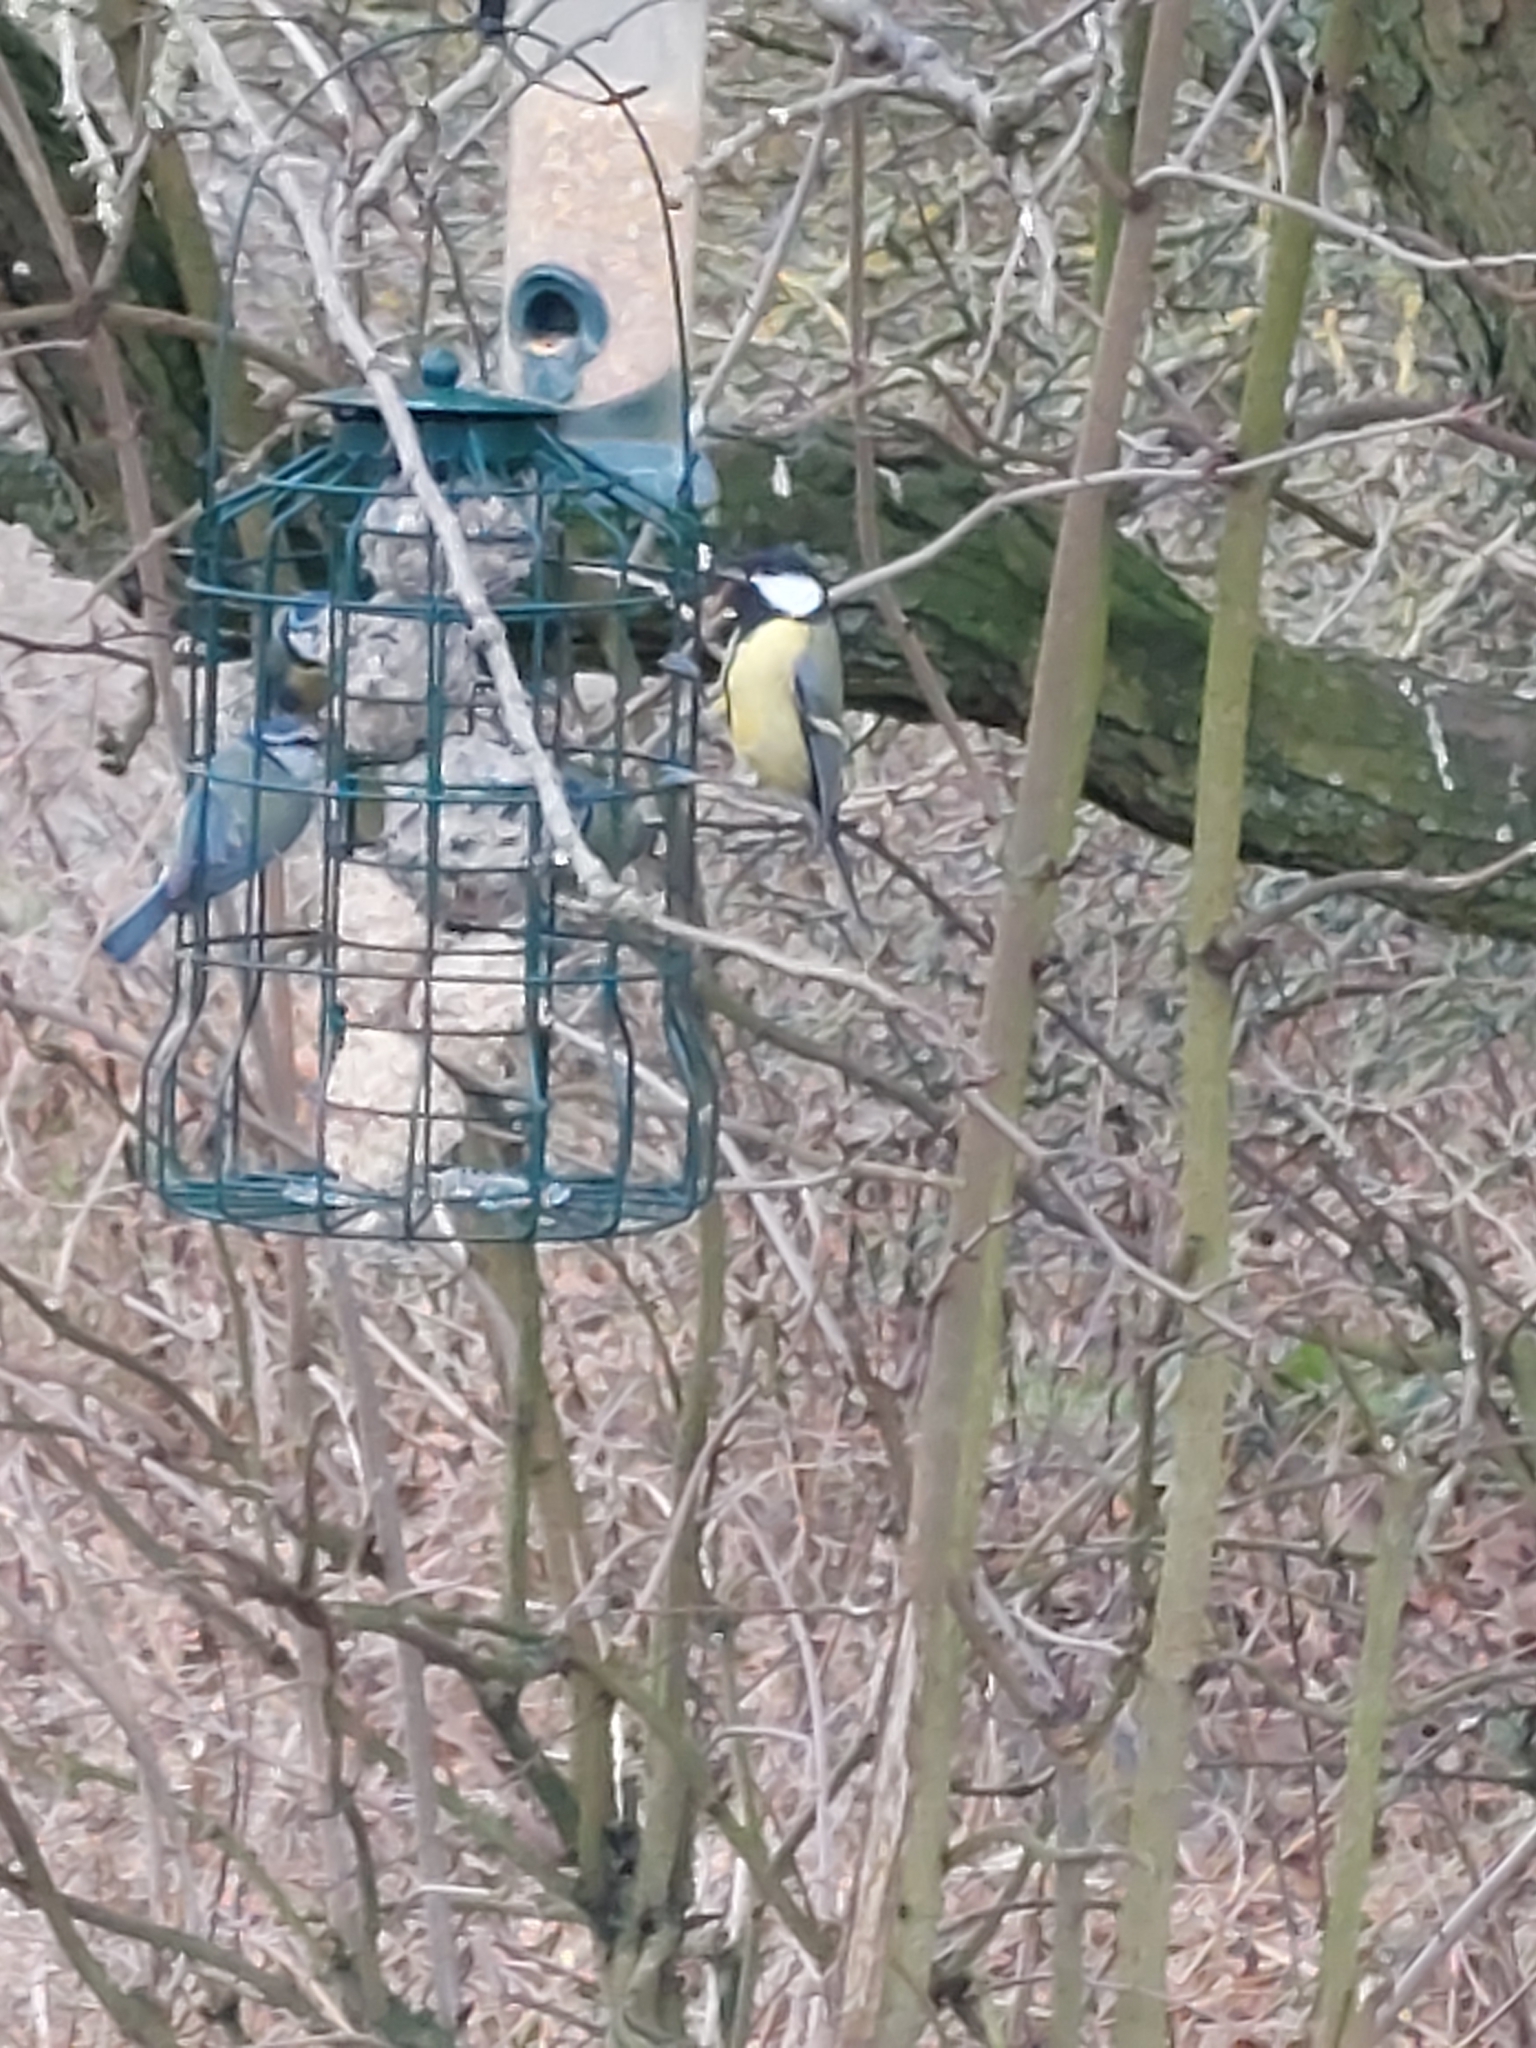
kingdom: Animalia
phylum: Chordata
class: Aves
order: Passeriformes
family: Paridae
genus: Parus
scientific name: Parus major
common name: Great tit
